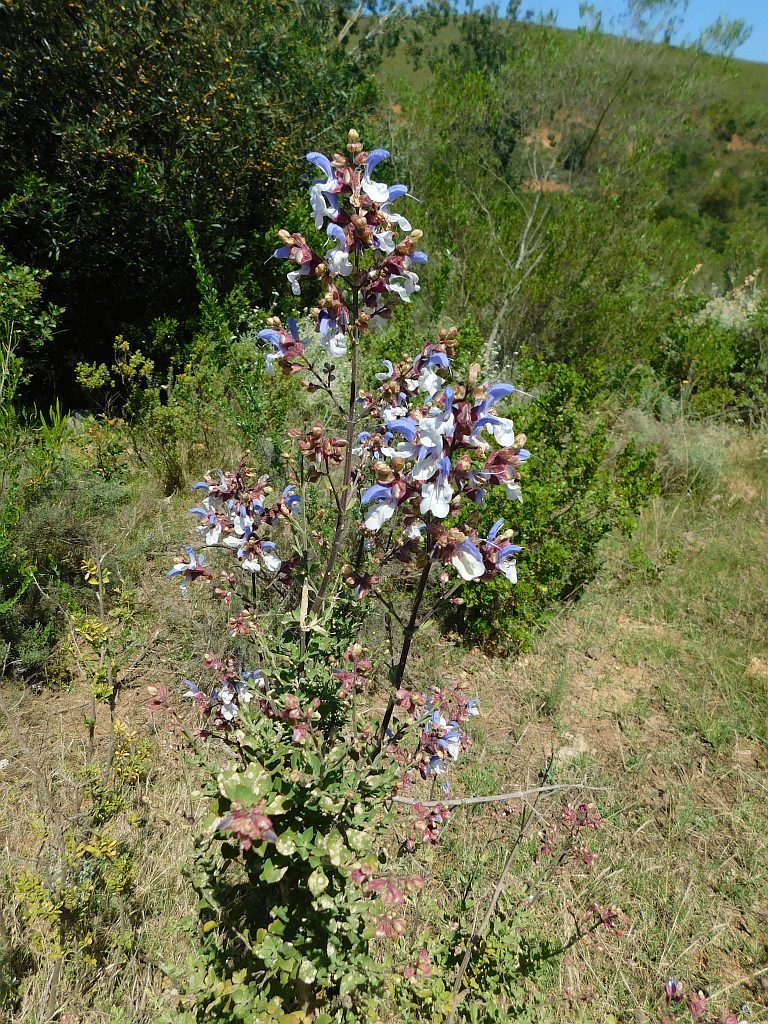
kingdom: Plantae
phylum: Tracheophyta
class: Magnoliopsida
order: Lamiales
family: Lamiaceae
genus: Salvia
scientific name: Salvia chamelaeagnea
